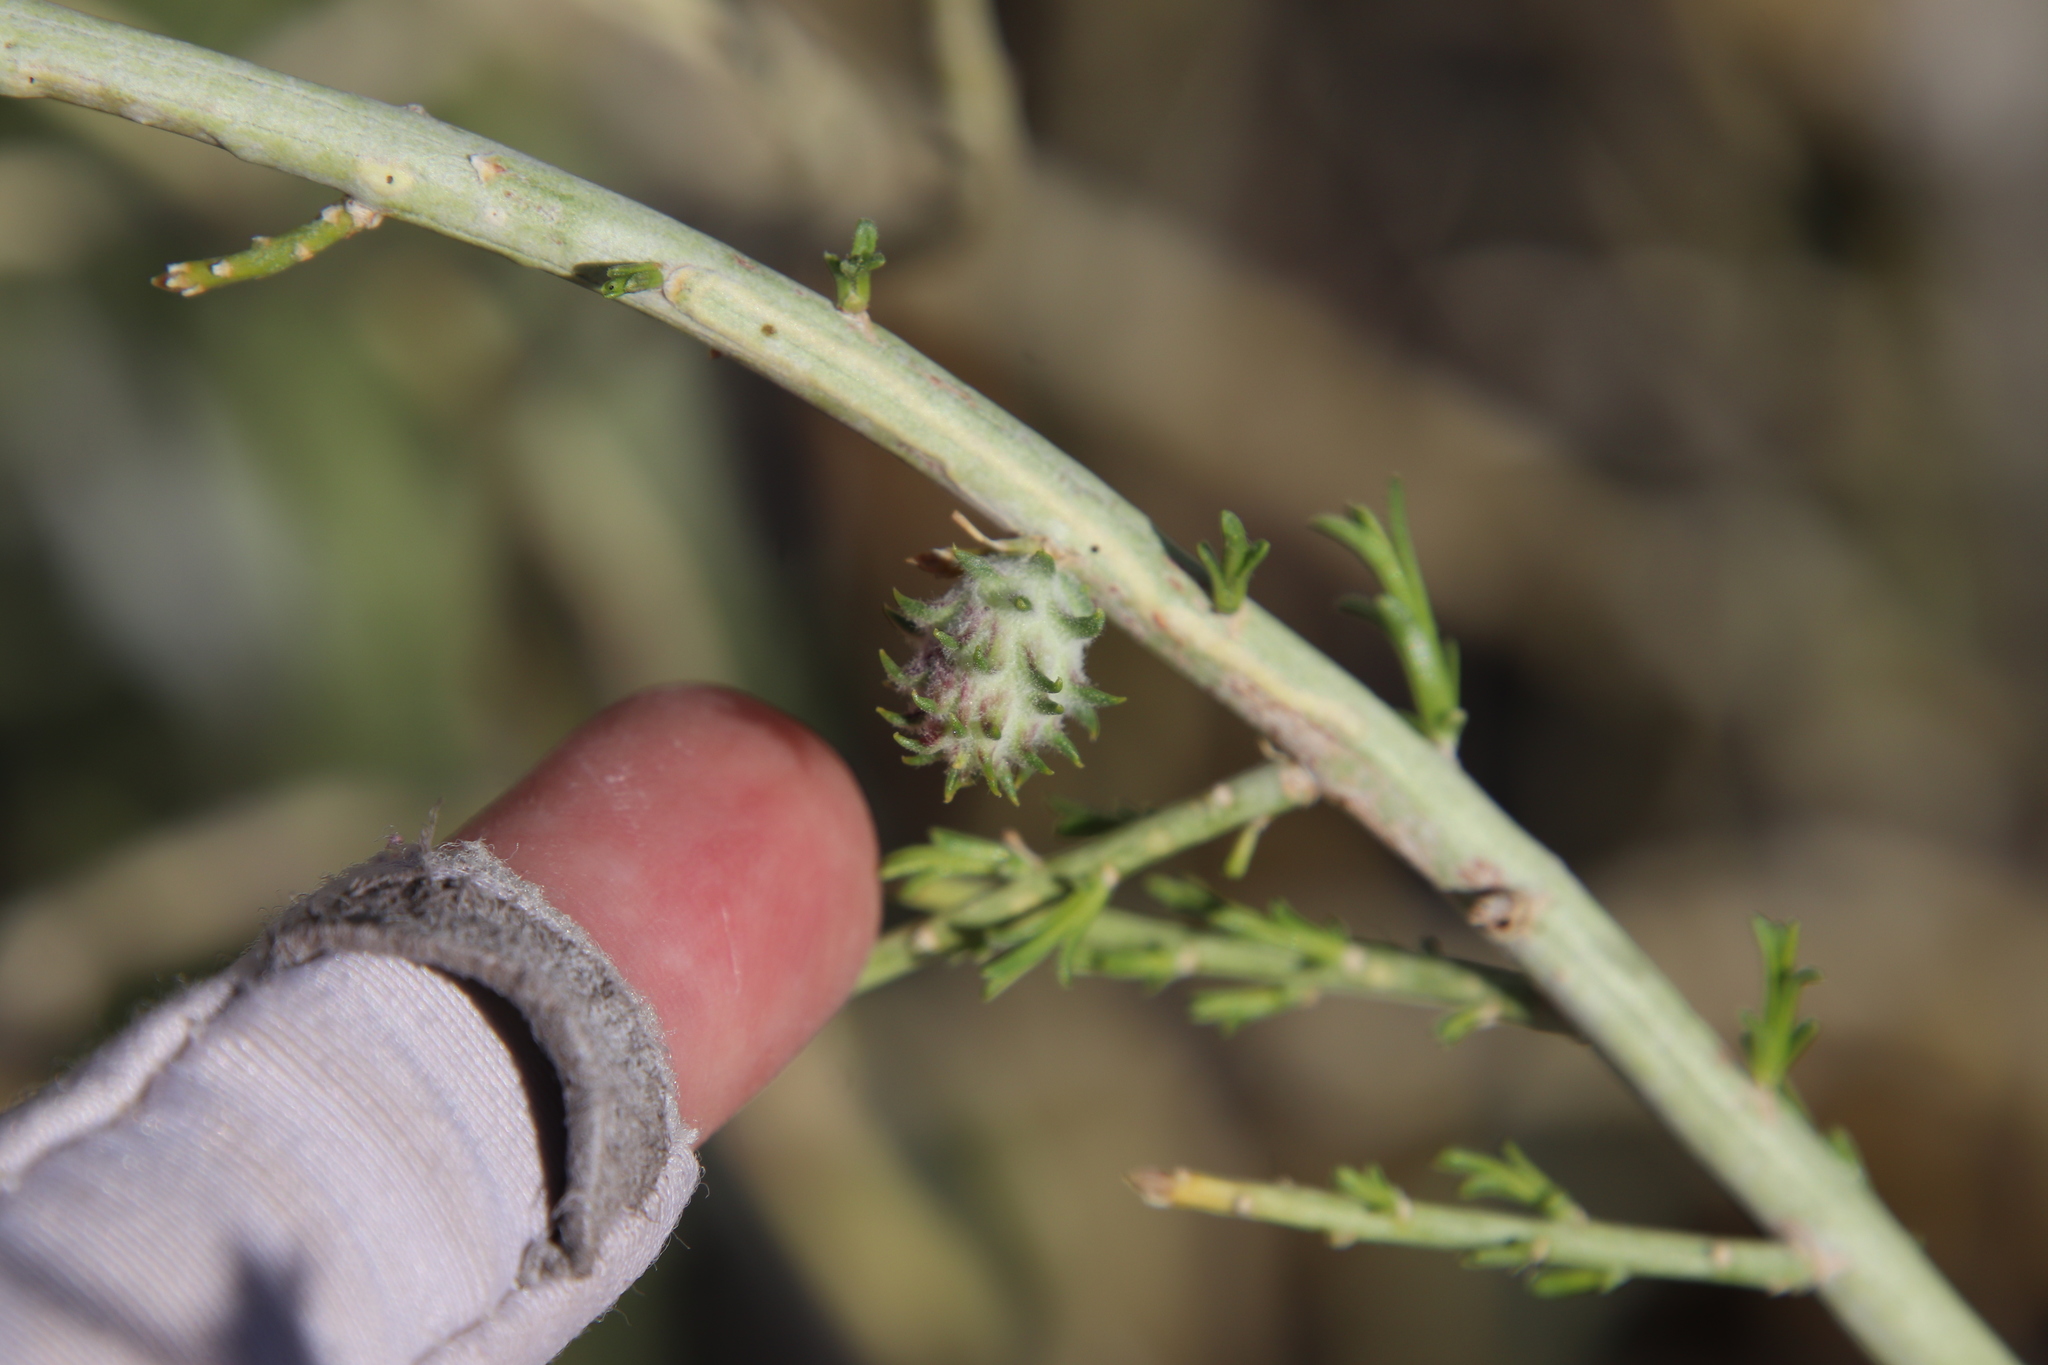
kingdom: Animalia
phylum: Arthropoda
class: Insecta
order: Diptera
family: Cecidomyiidae
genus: Rhopalomyia
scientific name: Rhopalomyia utahensis
